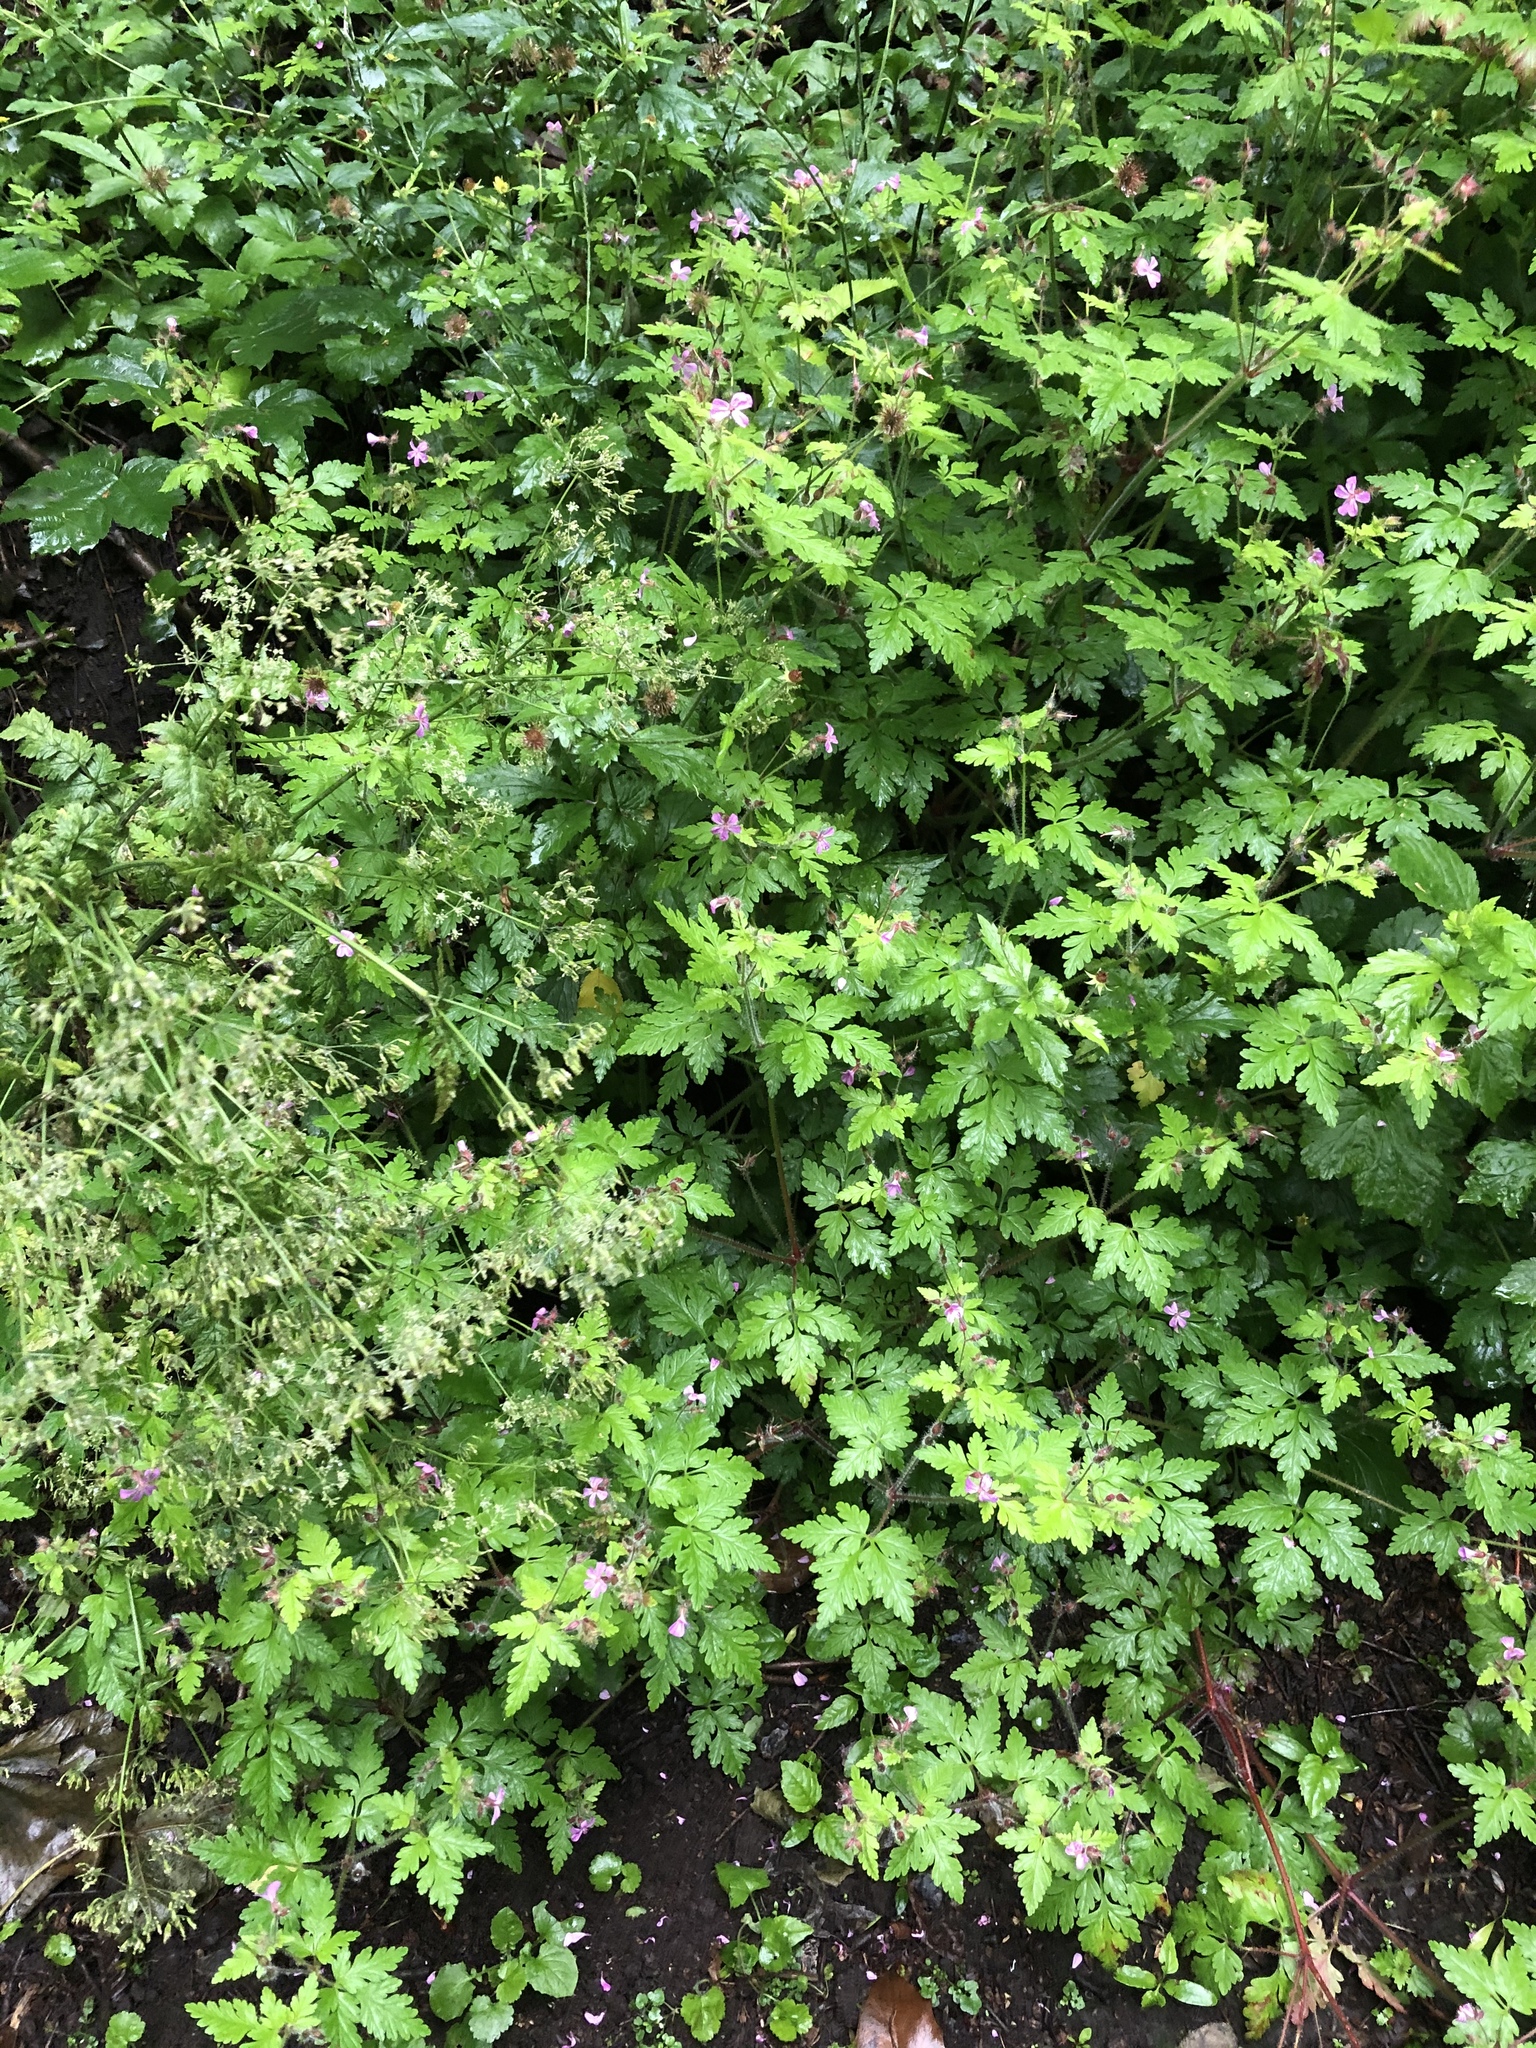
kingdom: Plantae
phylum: Tracheophyta
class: Magnoliopsida
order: Geraniales
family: Geraniaceae
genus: Geranium
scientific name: Geranium robertianum
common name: Herb-robert
